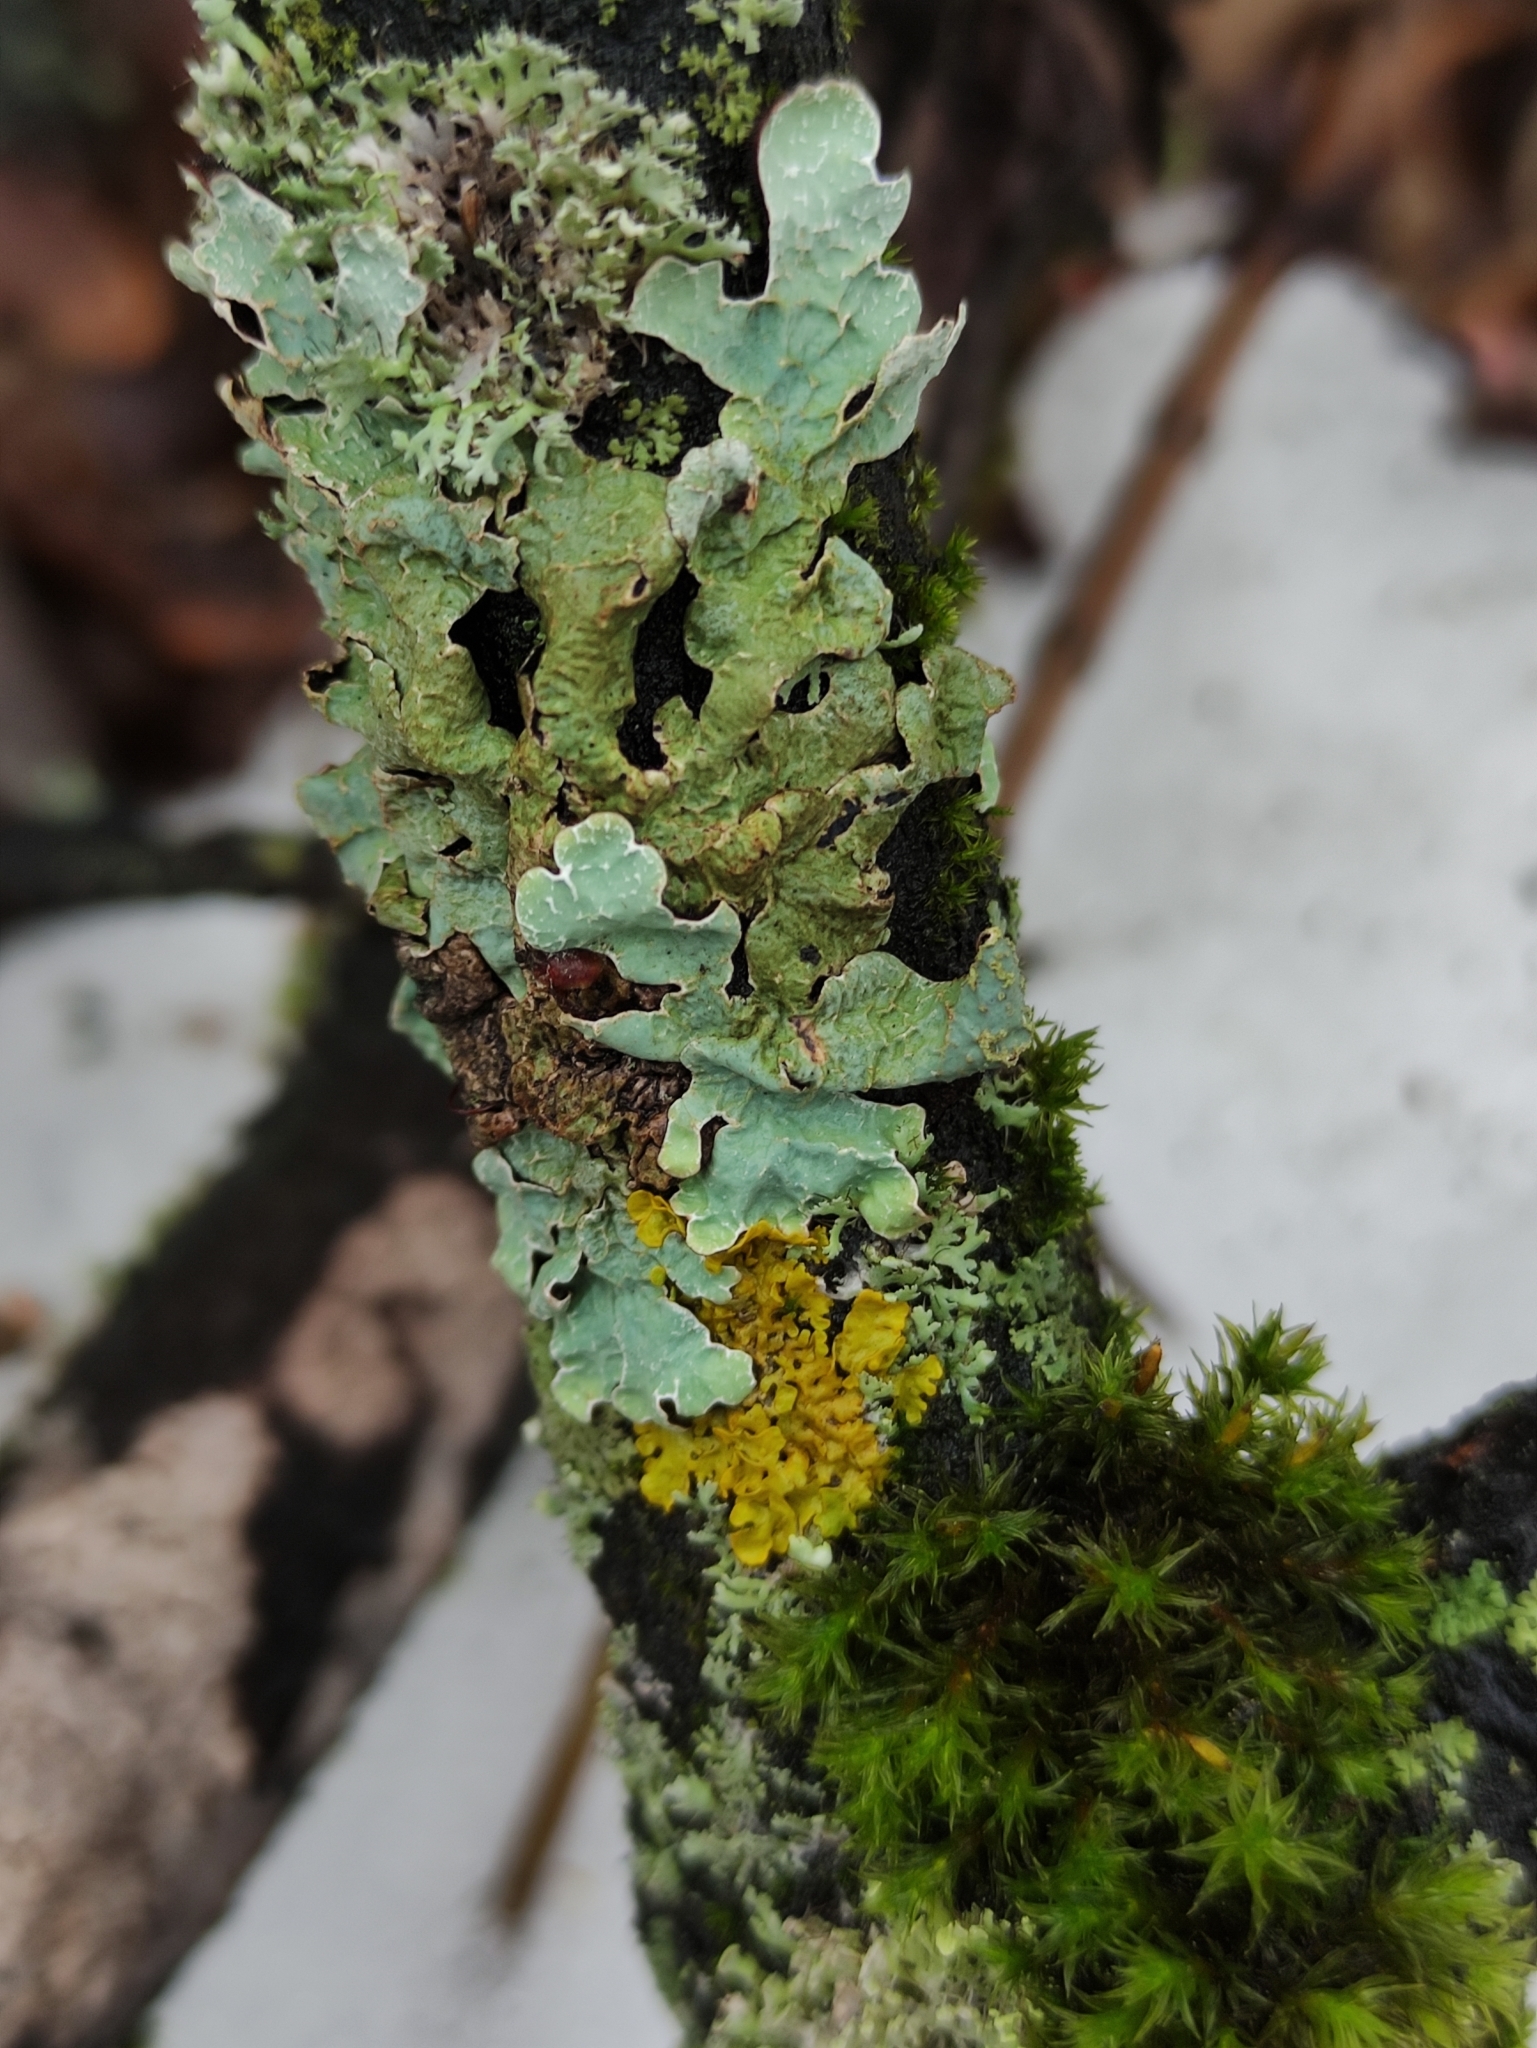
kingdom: Fungi
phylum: Ascomycota
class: Lecanoromycetes
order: Lecanorales
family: Parmeliaceae
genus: Parmelia
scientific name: Parmelia sulcata
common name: Netted shield lichen
